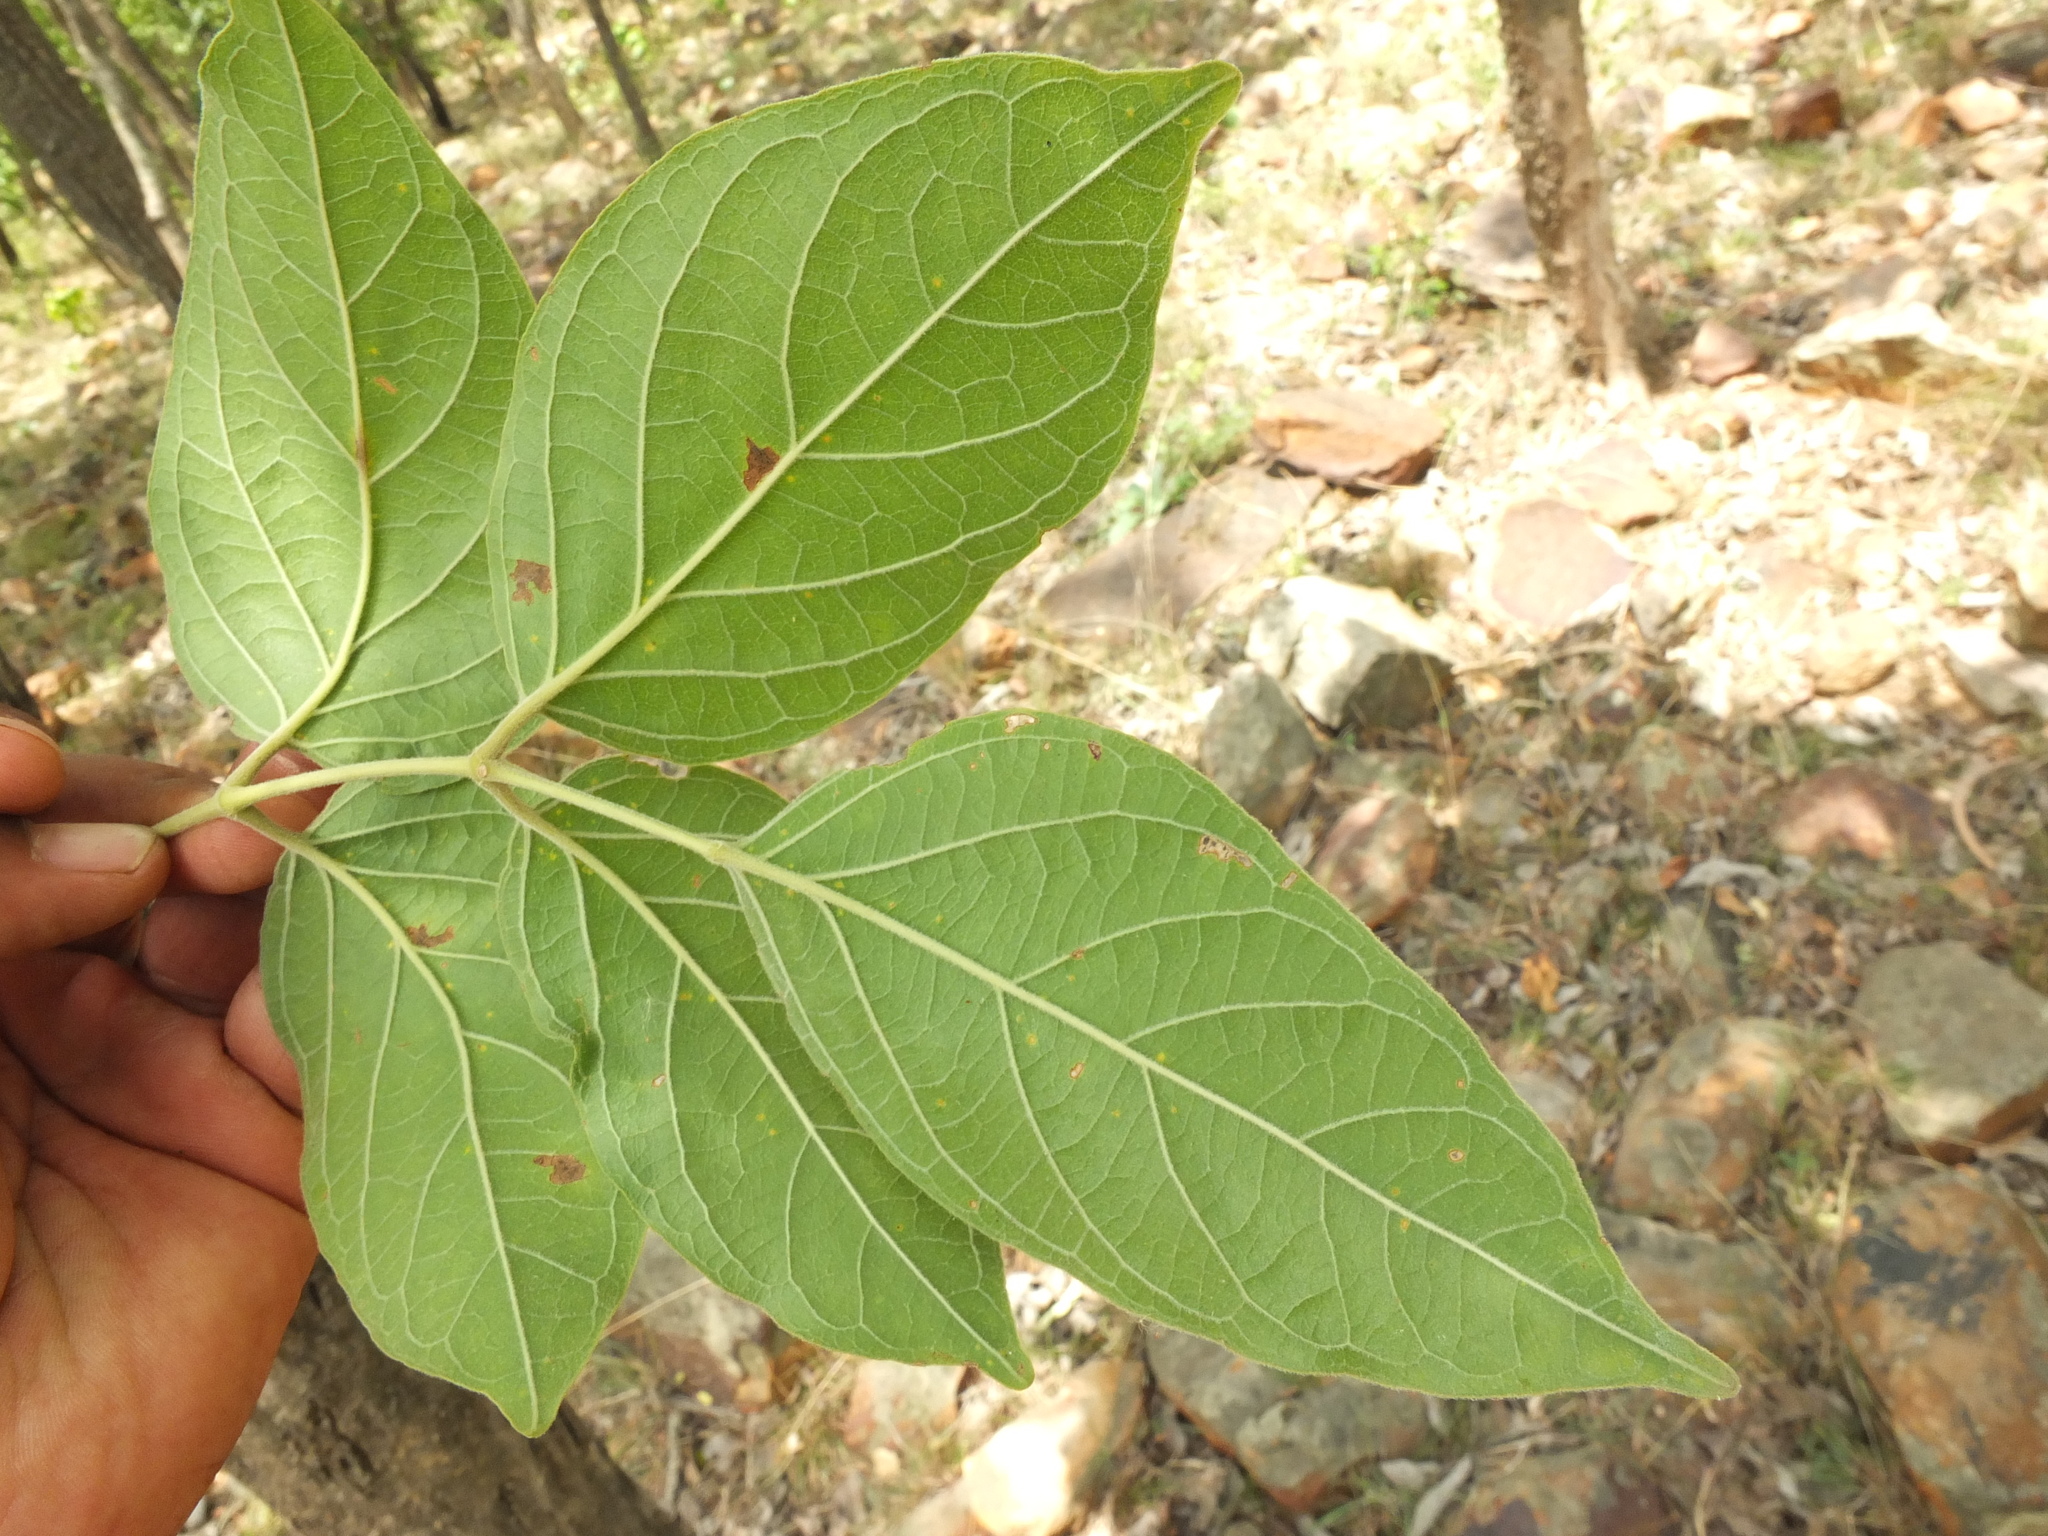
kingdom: Plantae
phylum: Tracheophyta
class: Magnoliopsida
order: Lamiales
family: Bignoniaceae
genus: Dolichandrone
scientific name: Dolichandrone atrovirens
